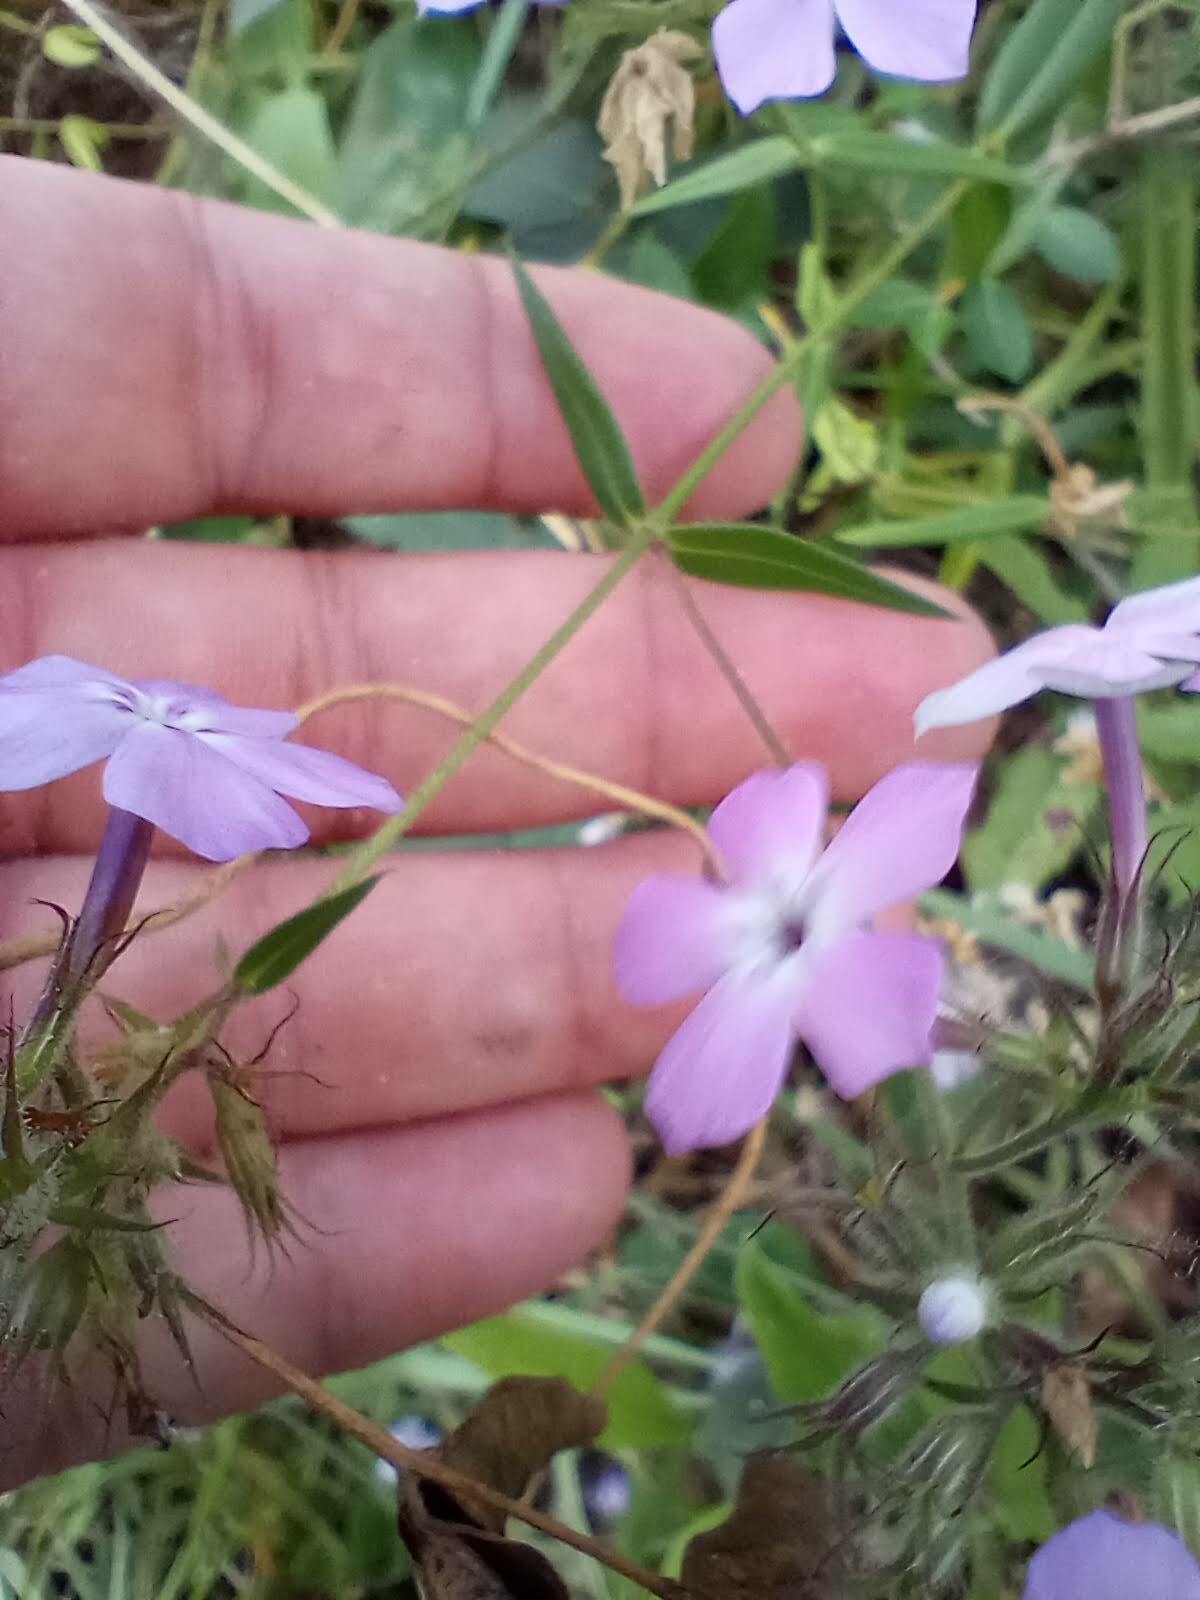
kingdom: Plantae
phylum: Tracheophyta
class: Magnoliopsida
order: Ericales
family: Polemoniaceae
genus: Phlox
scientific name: Phlox pilosa
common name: Prairie phlox
